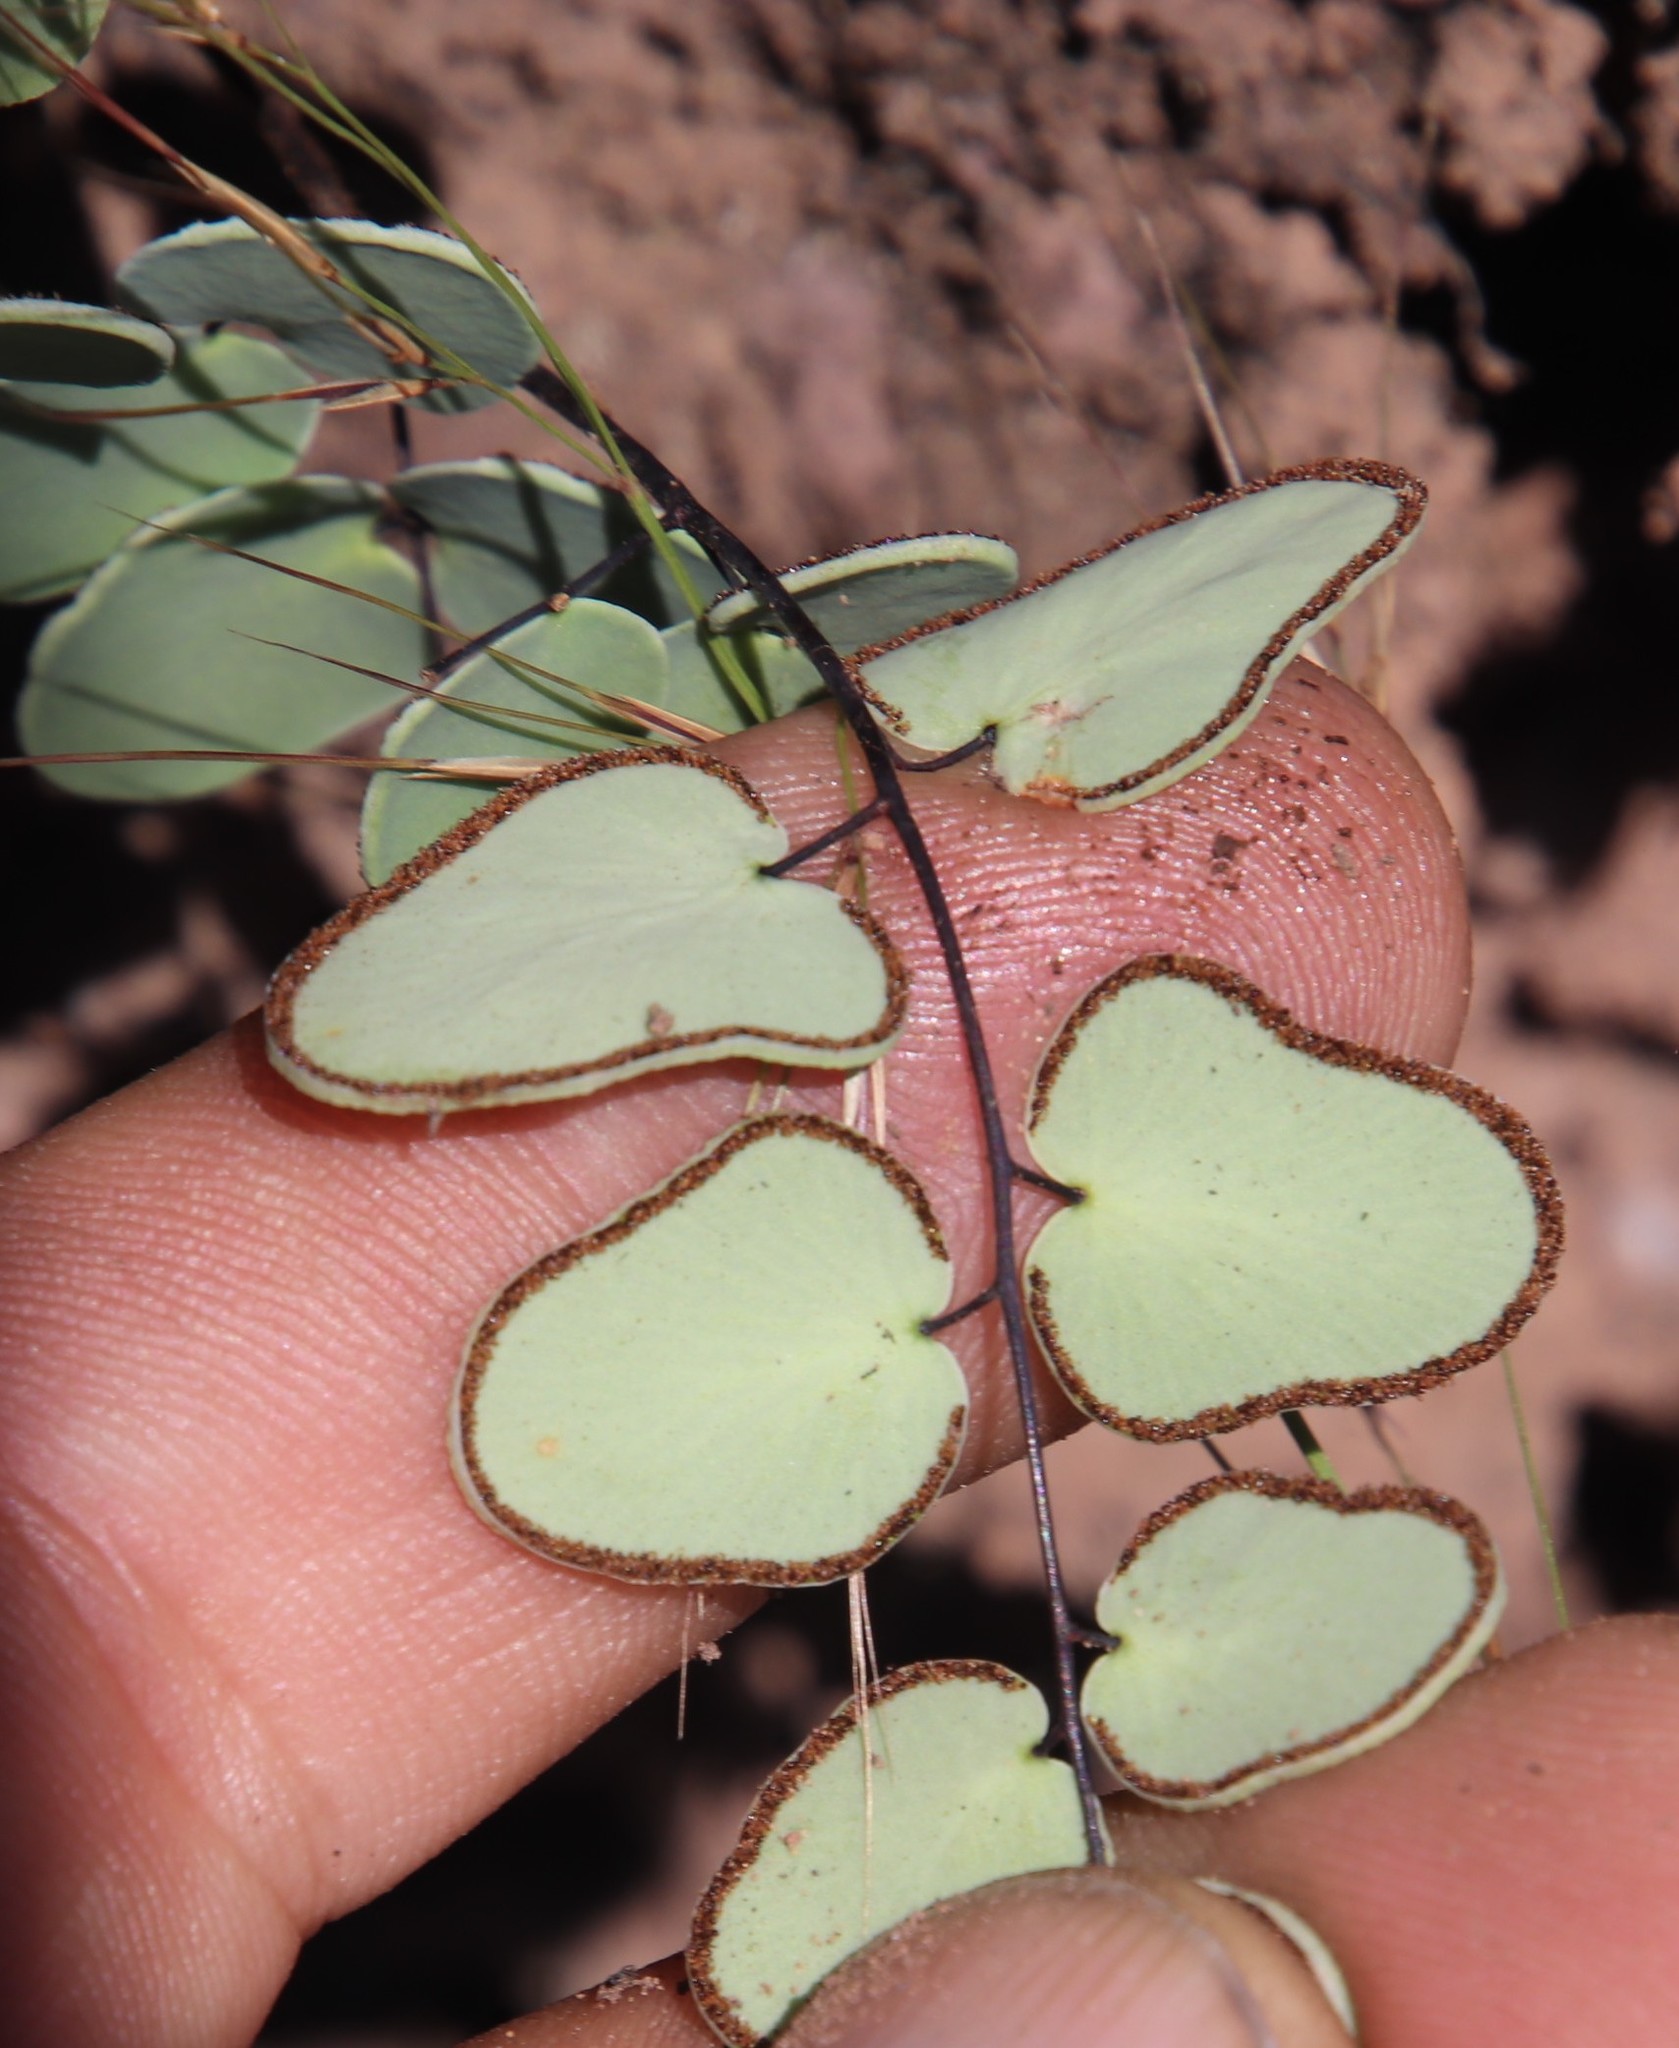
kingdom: Plantae
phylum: Tracheophyta
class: Polypodiopsida
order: Polypodiales
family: Pteridaceae
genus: Pellaea
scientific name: Pellaea calomelanos
